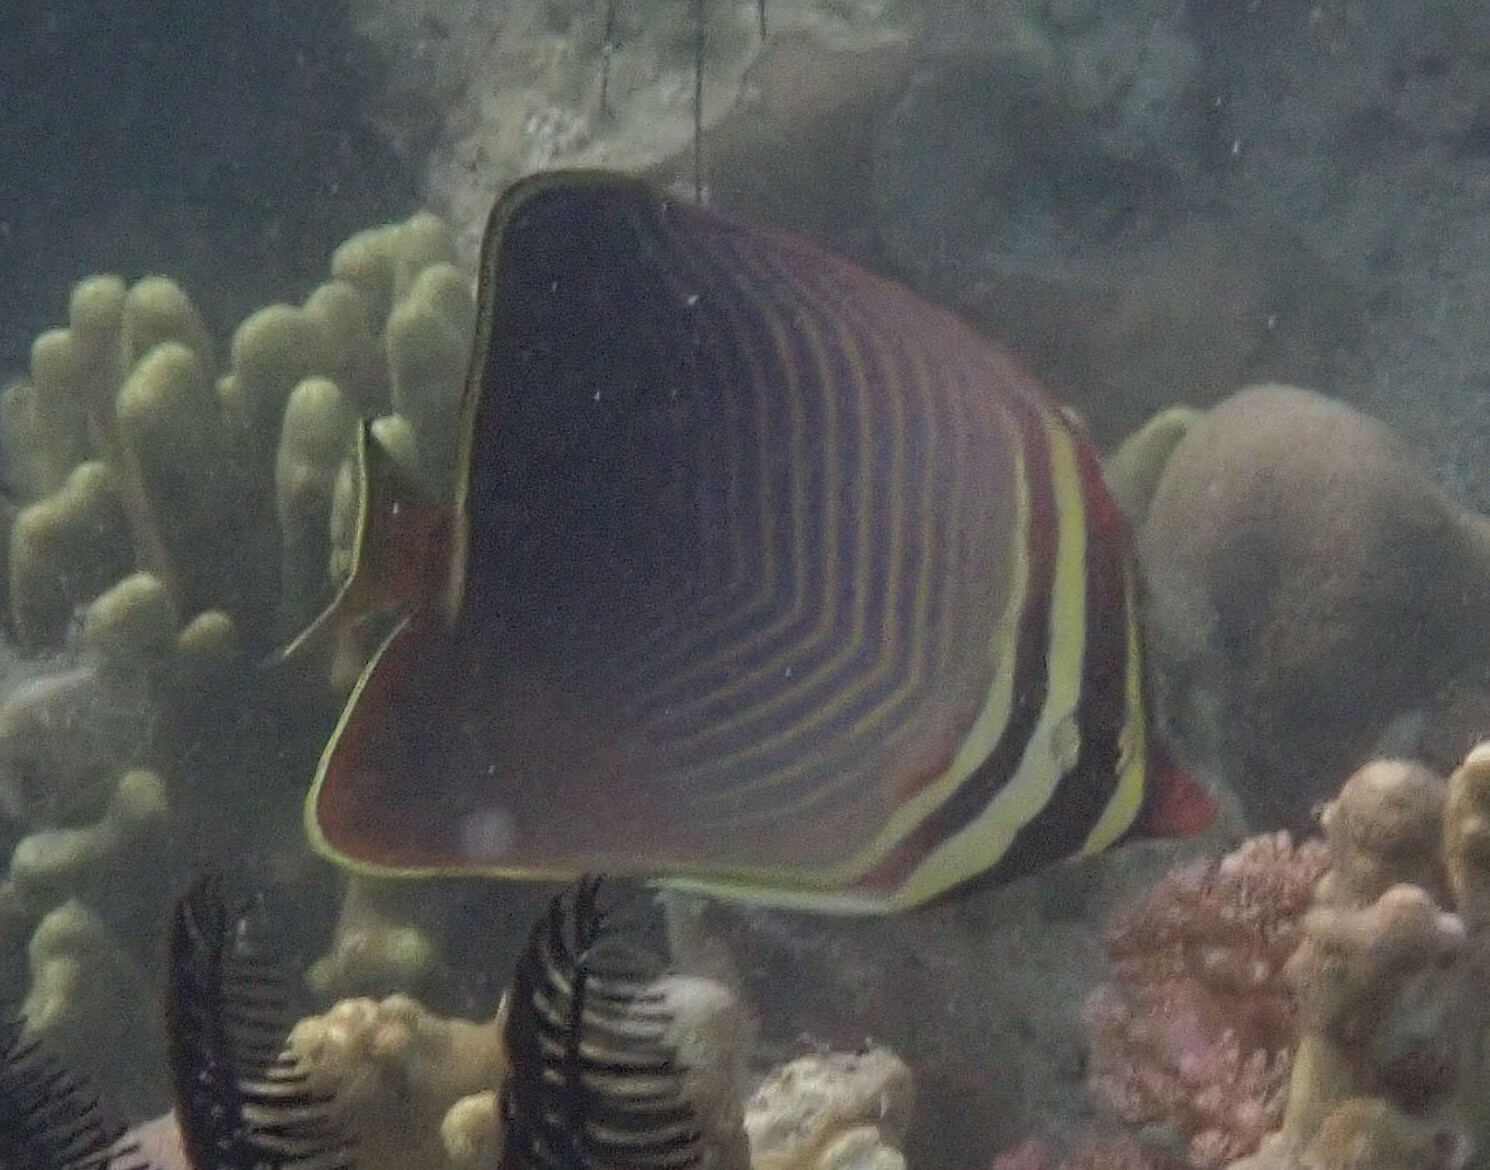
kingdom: Animalia
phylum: Chordata
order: Perciformes
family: Chaetodontidae
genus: Chaetodon
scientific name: Chaetodon baronessa
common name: Triangular butterflyfish
